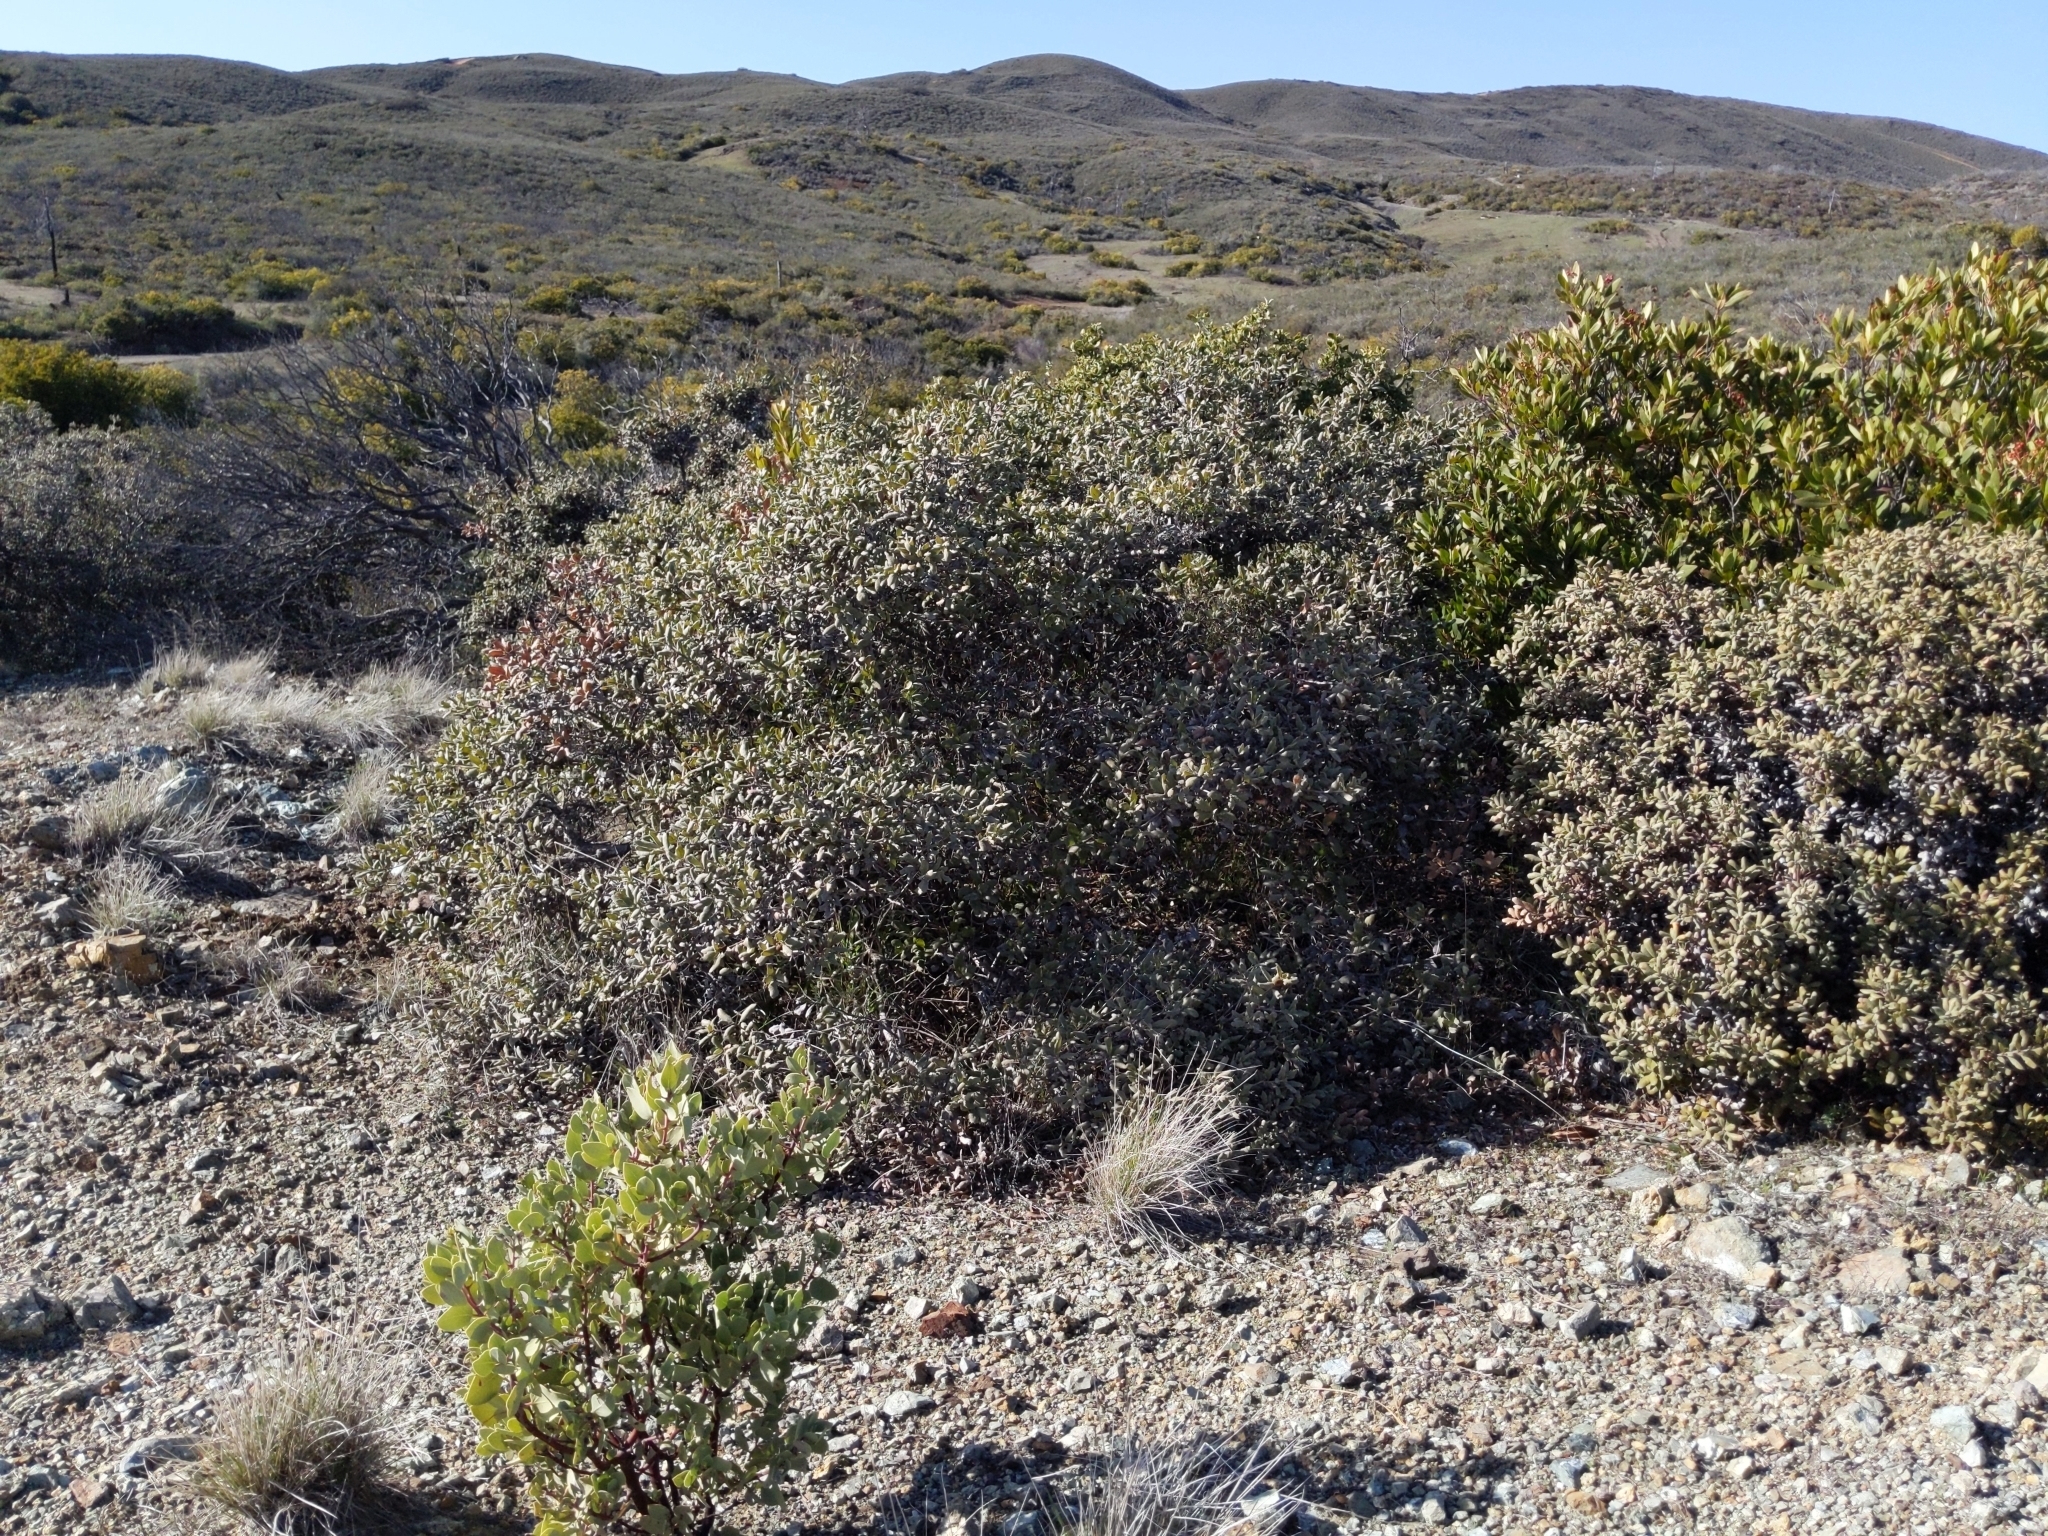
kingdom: Plantae
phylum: Tracheophyta
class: Magnoliopsida
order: Fagales
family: Fagaceae
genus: Quercus
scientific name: Quercus durata
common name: Leather oak
